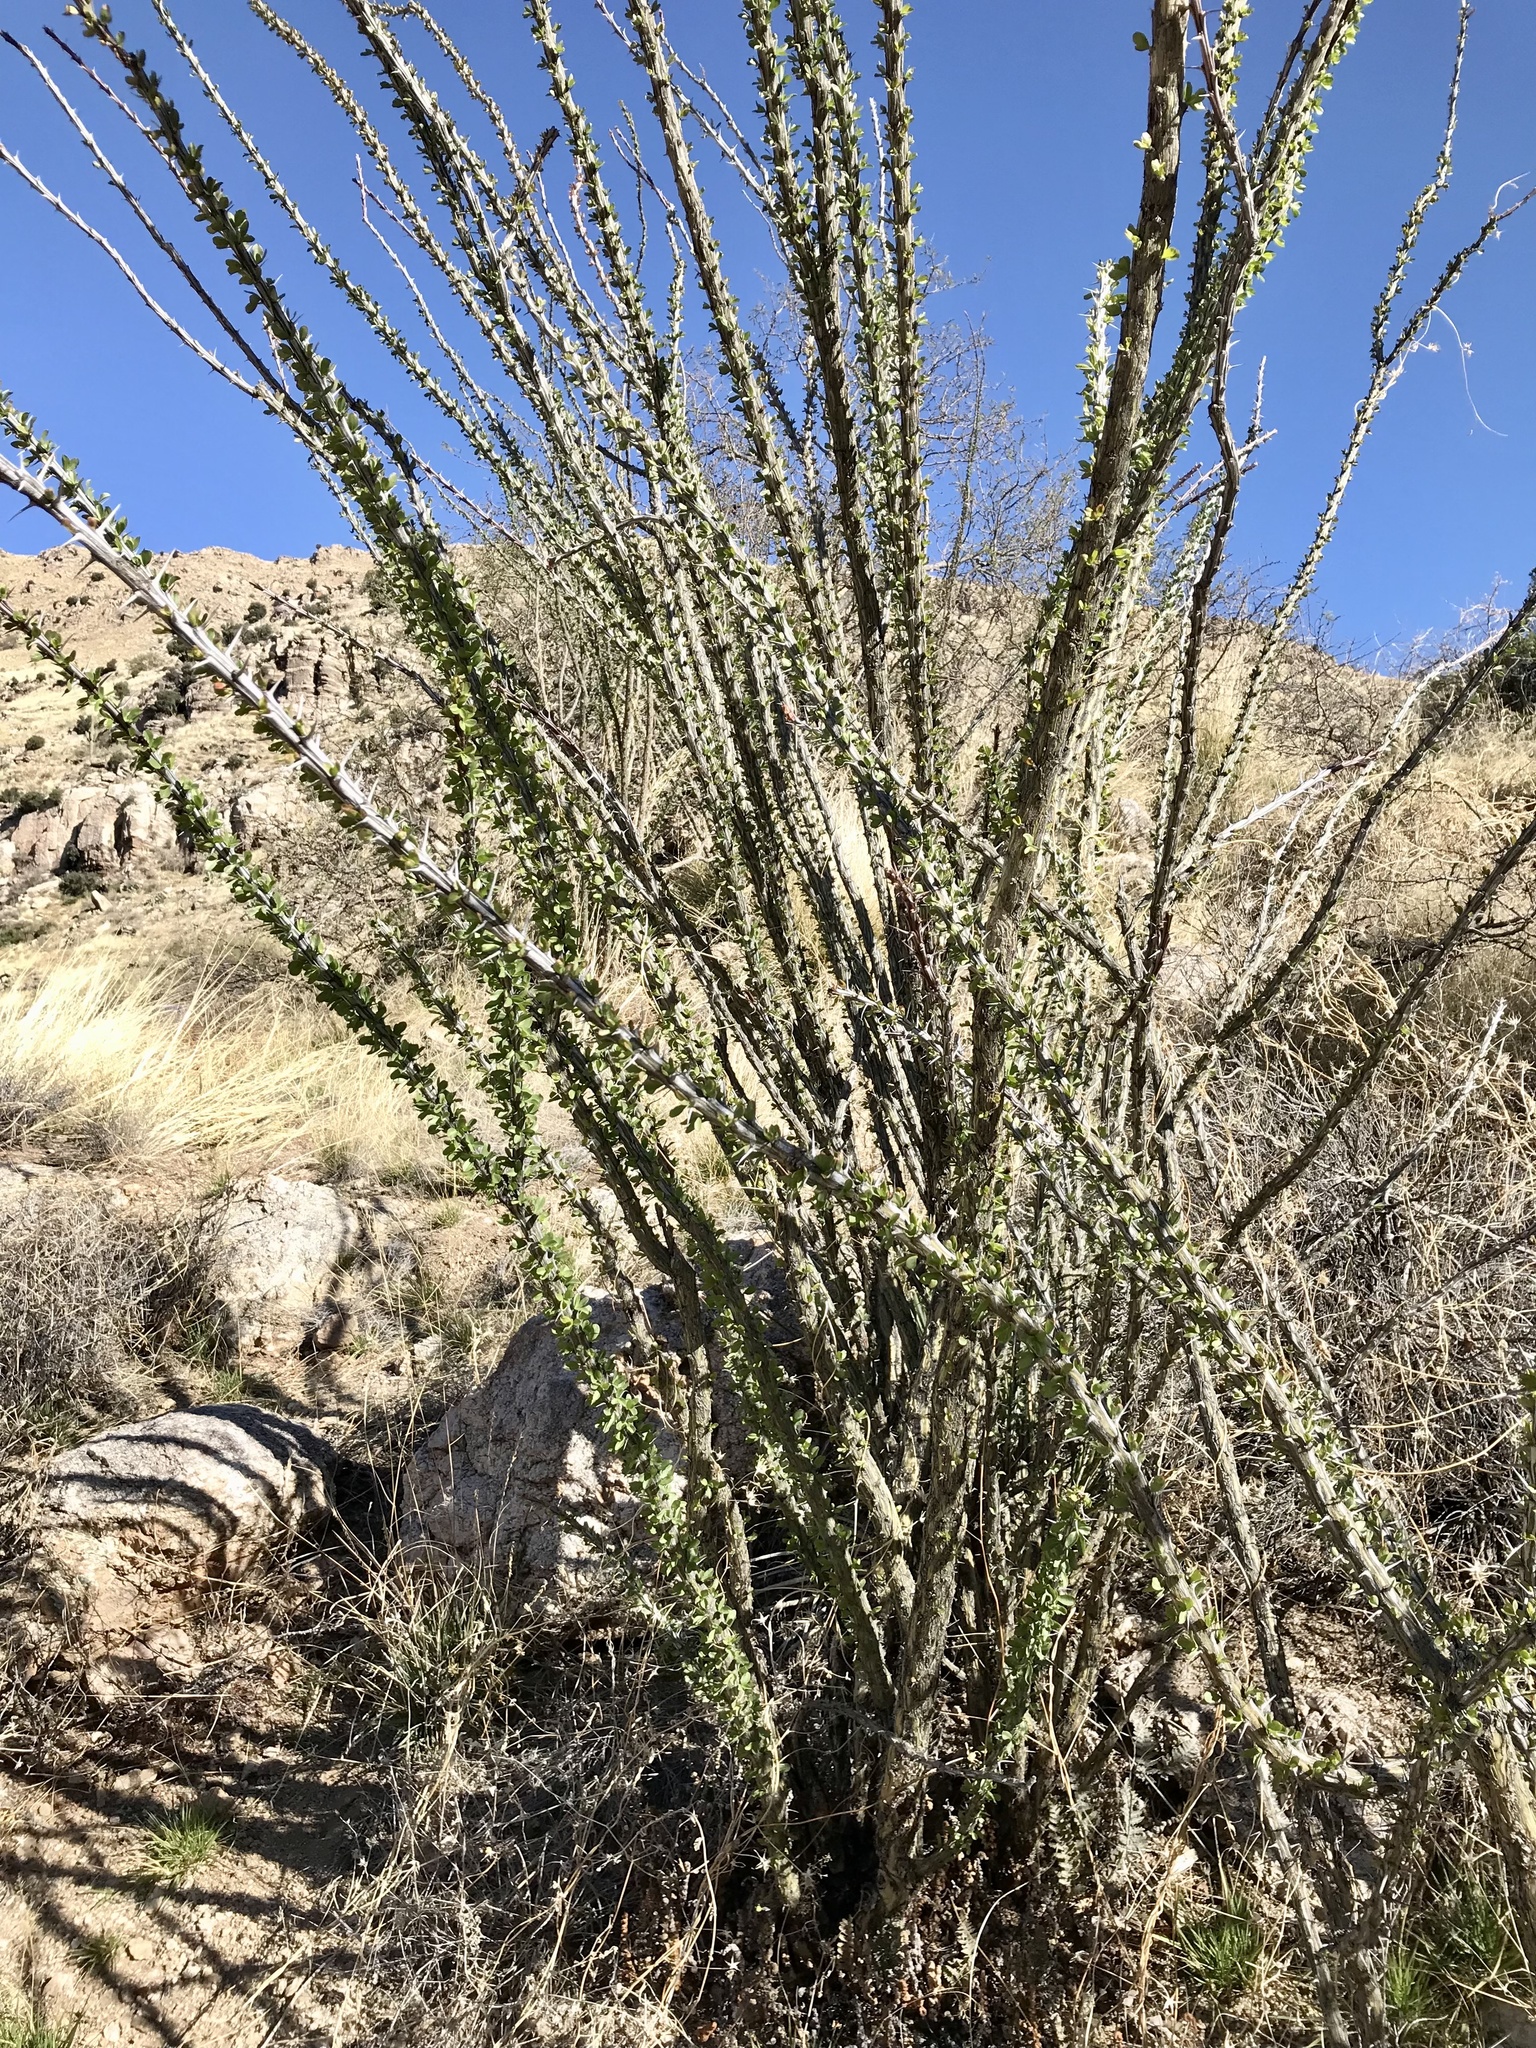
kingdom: Plantae
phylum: Tracheophyta
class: Magnoliopsida
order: Ericales
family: Fouquieriaceae
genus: Fouquieria
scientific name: Fouquieria splendens
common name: Vine-cactus
